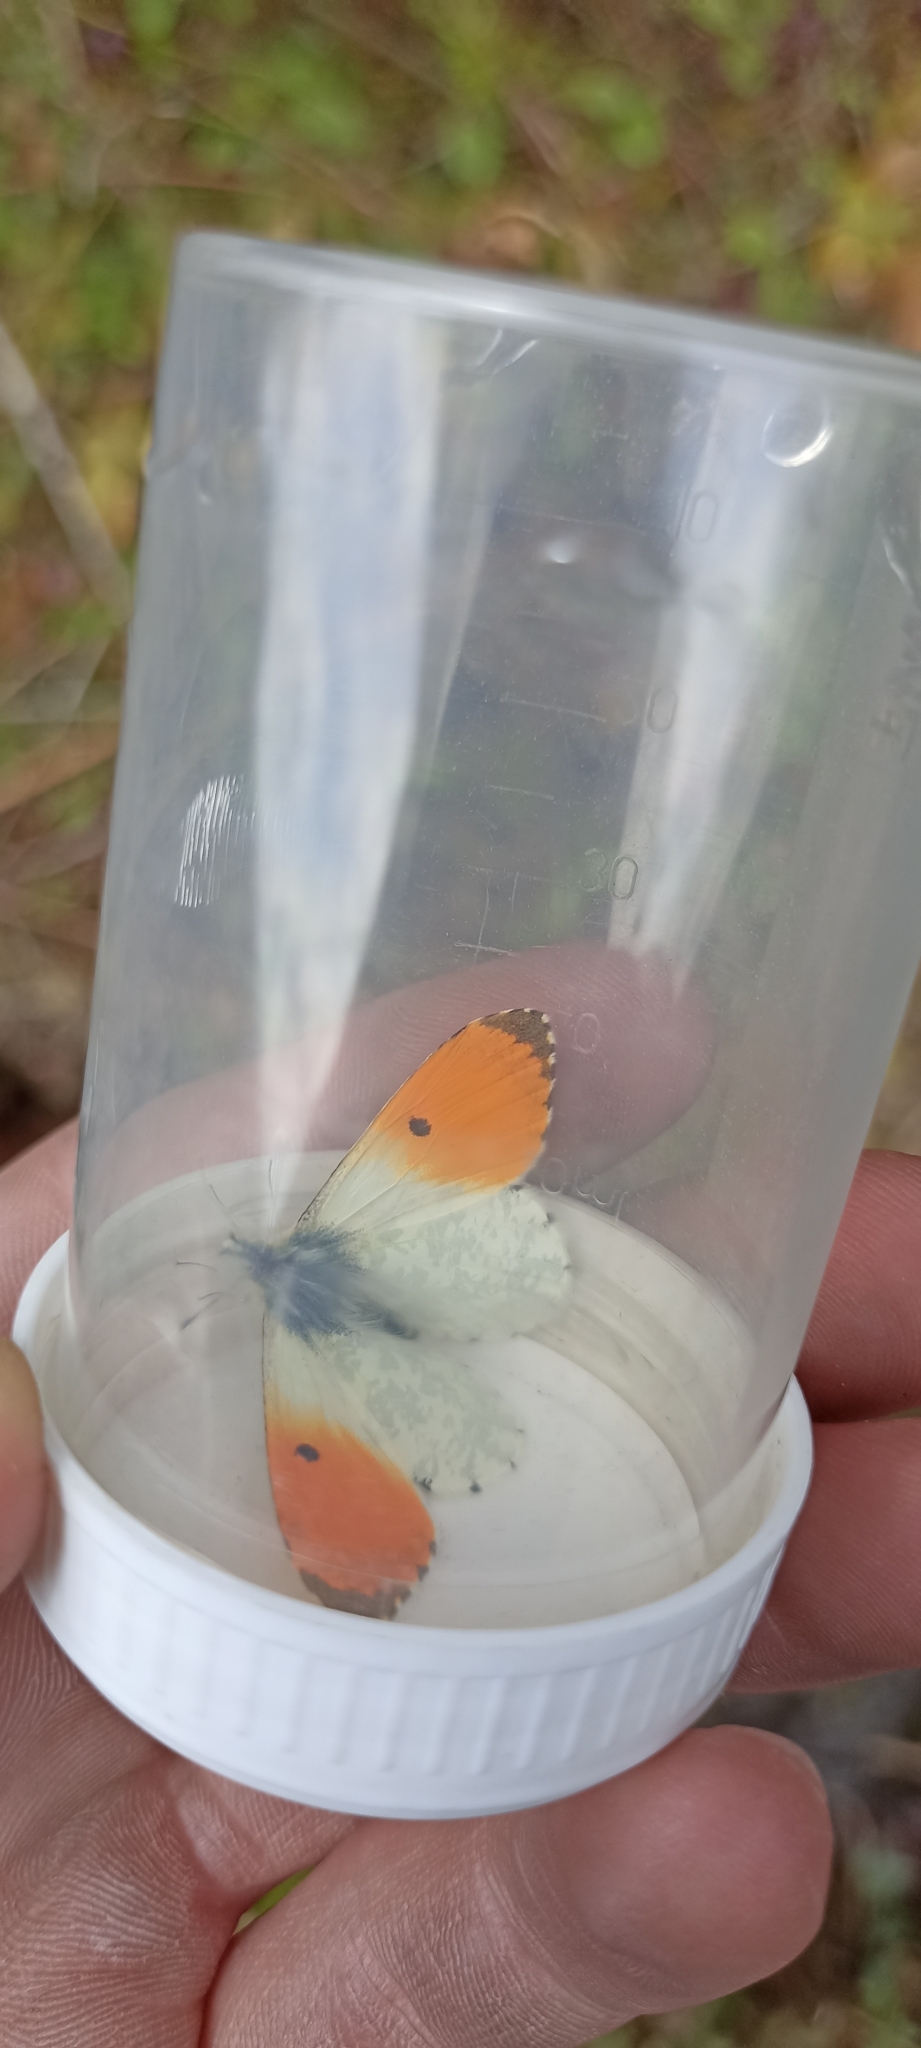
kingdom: Animalia
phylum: Arthropoda
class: Insecta
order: Lepidoptera
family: Pieridae
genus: Anthocharis
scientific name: Anthocharis cardamines
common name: Orange-tip
